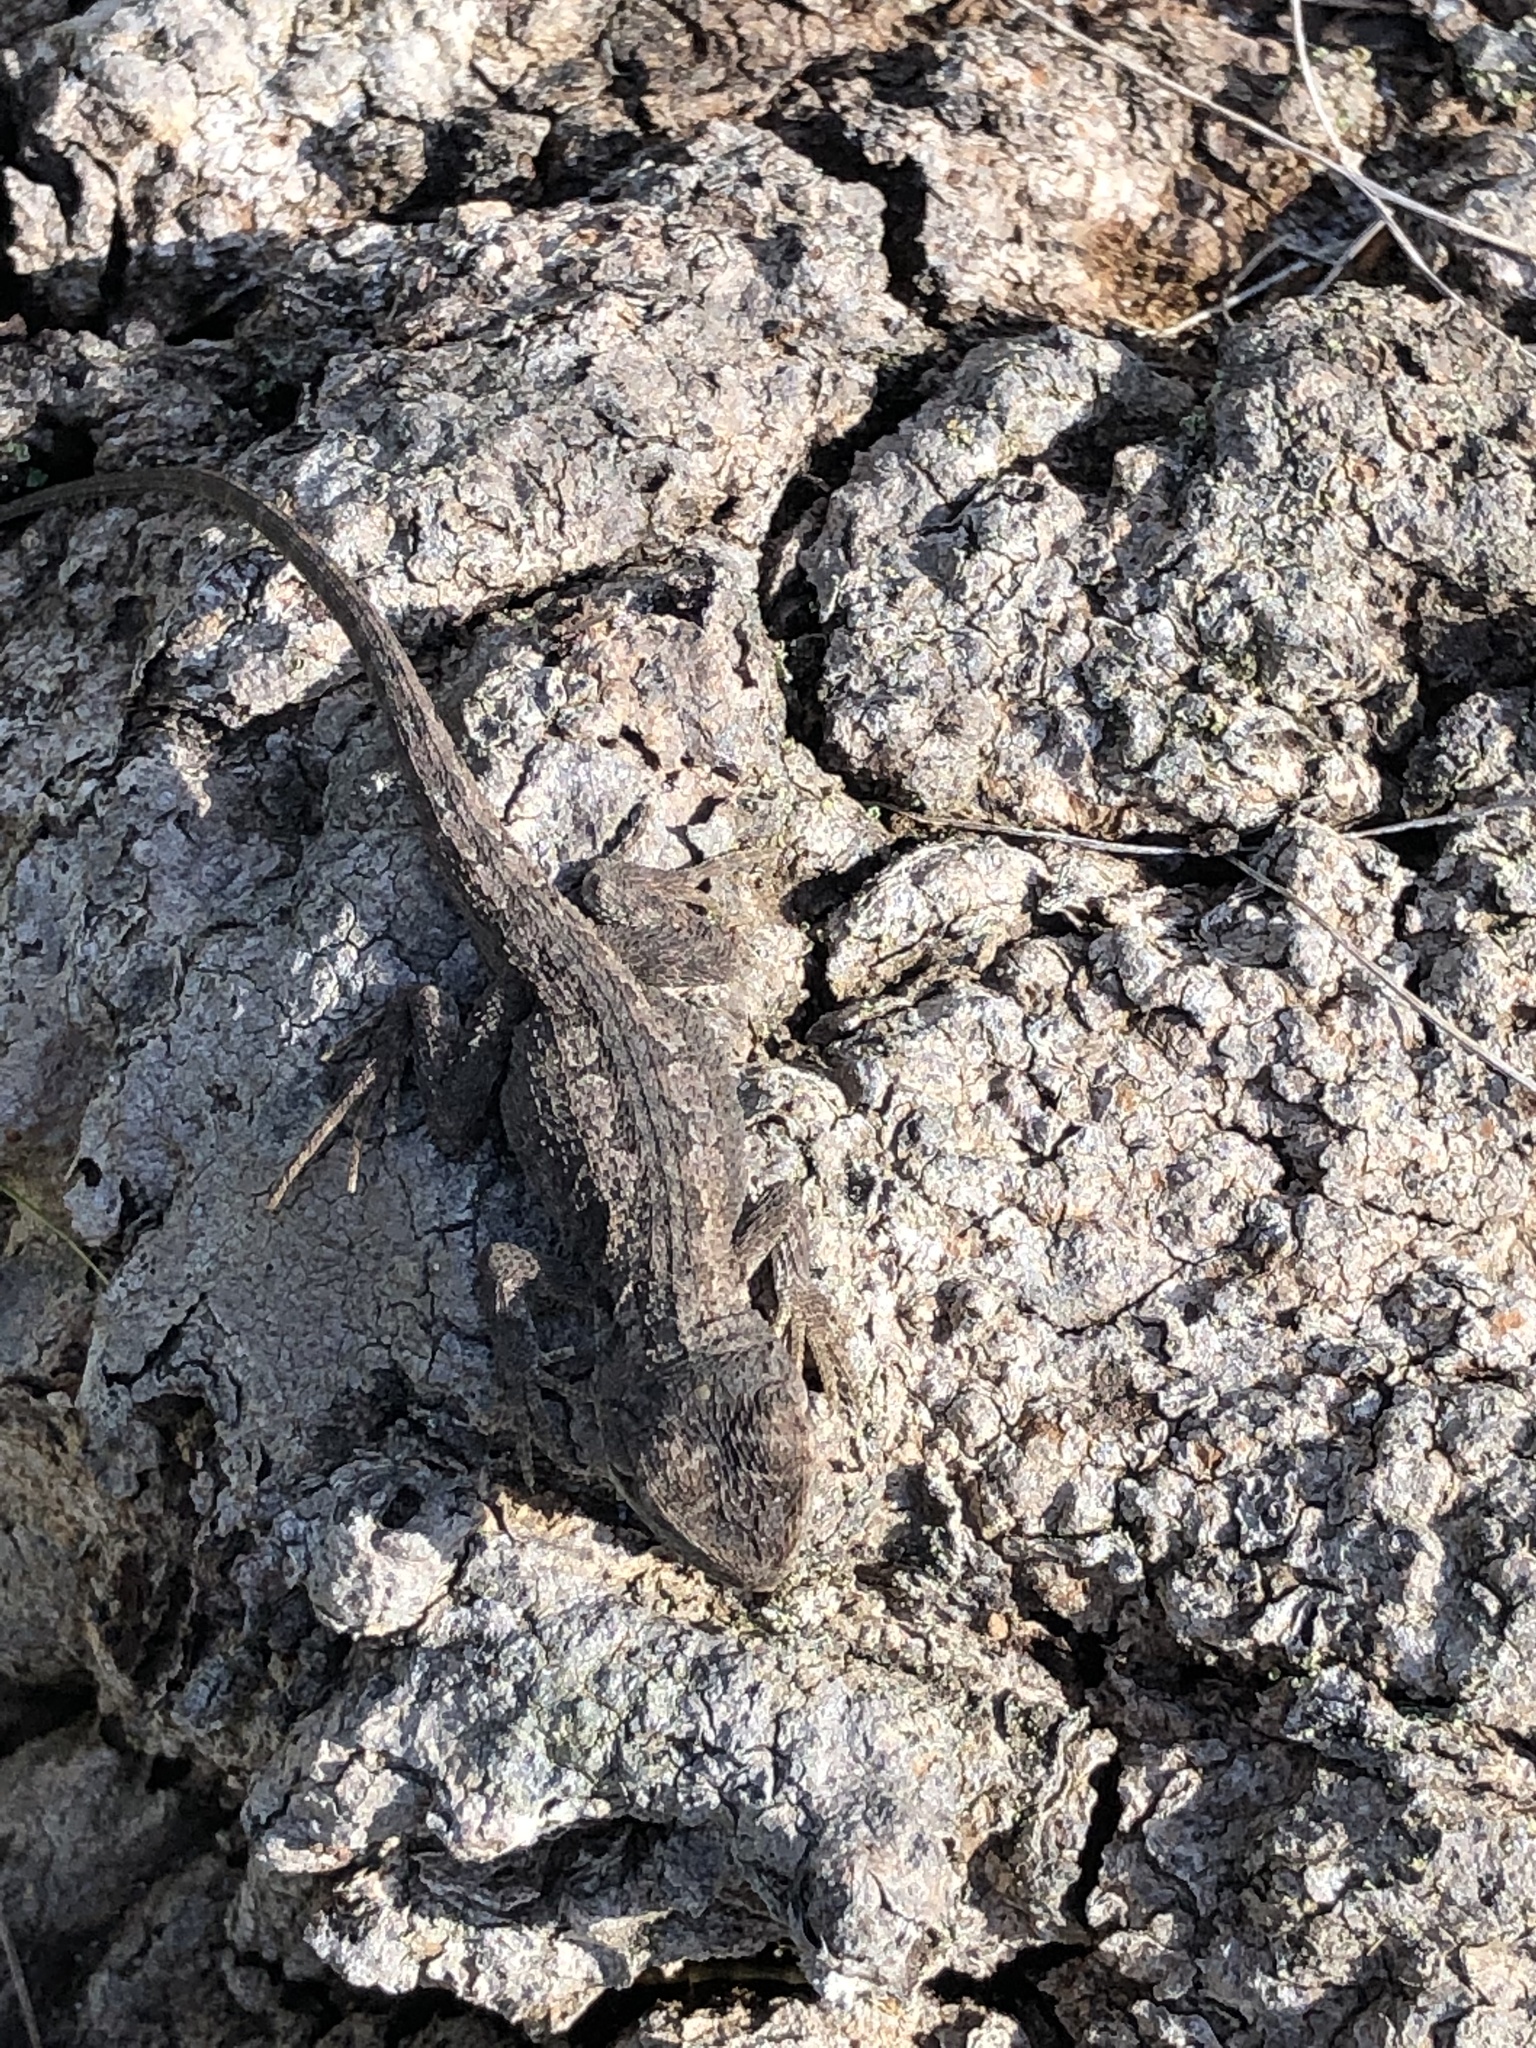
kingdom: Animalia
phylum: Chordata
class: Squamata
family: Agamidae
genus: Amphibolurus
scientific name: Amphibolurus muricatus
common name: Jacky lizard
